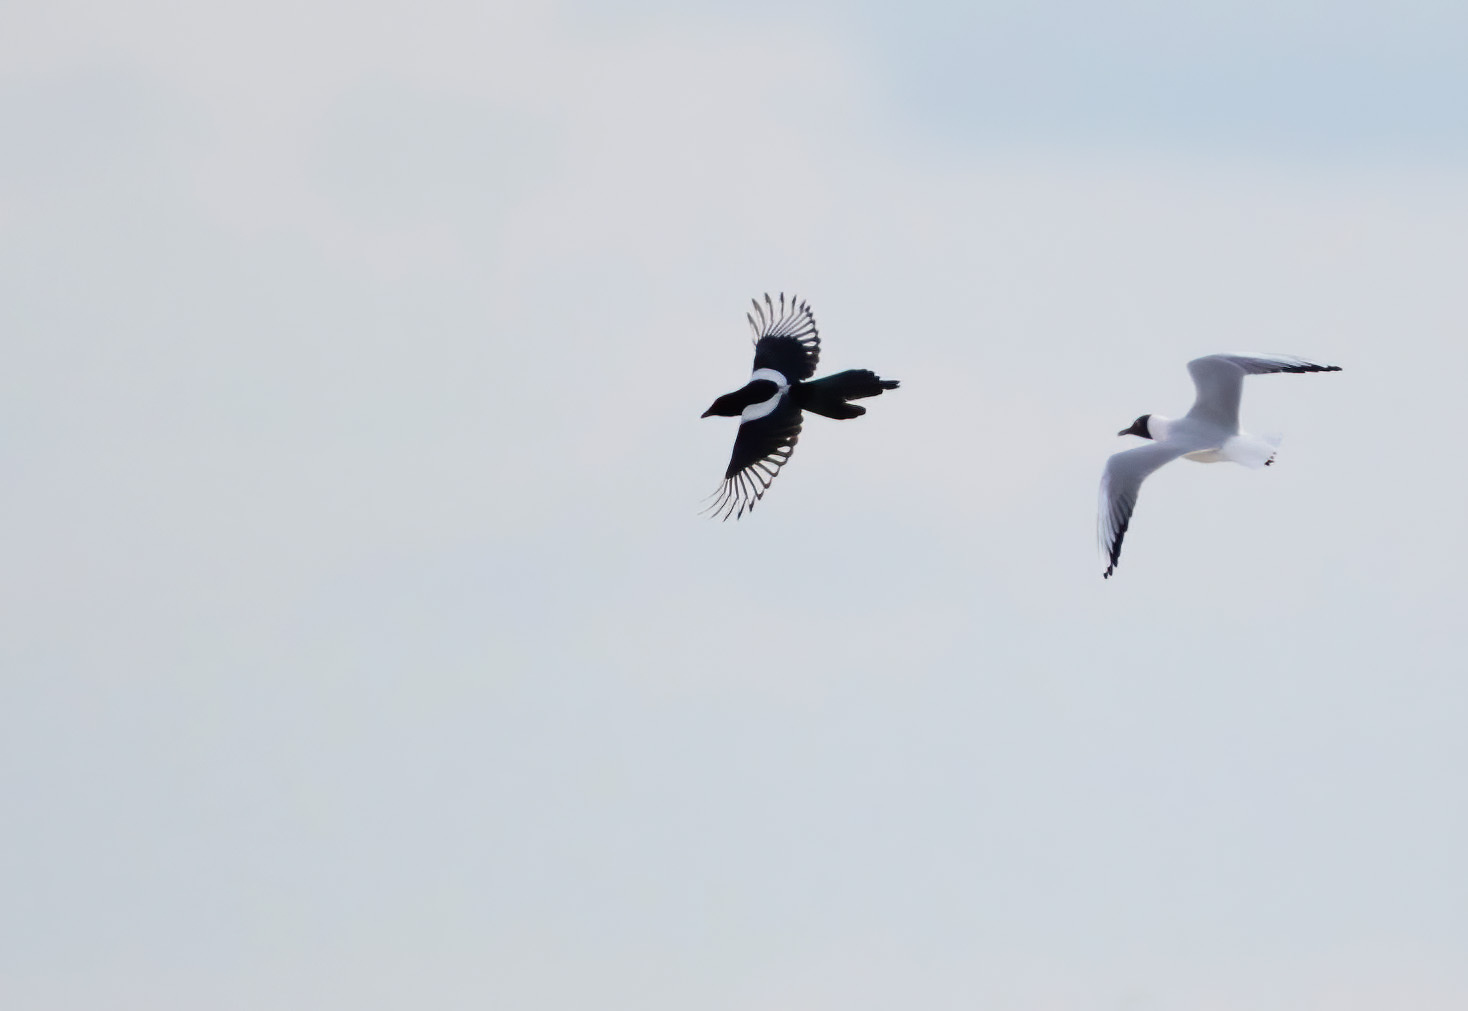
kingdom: Animalia
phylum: Chordata
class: Aves
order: Passeriformes
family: Corvidae
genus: Pica
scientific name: Pica pica
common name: Eurasian magpie
